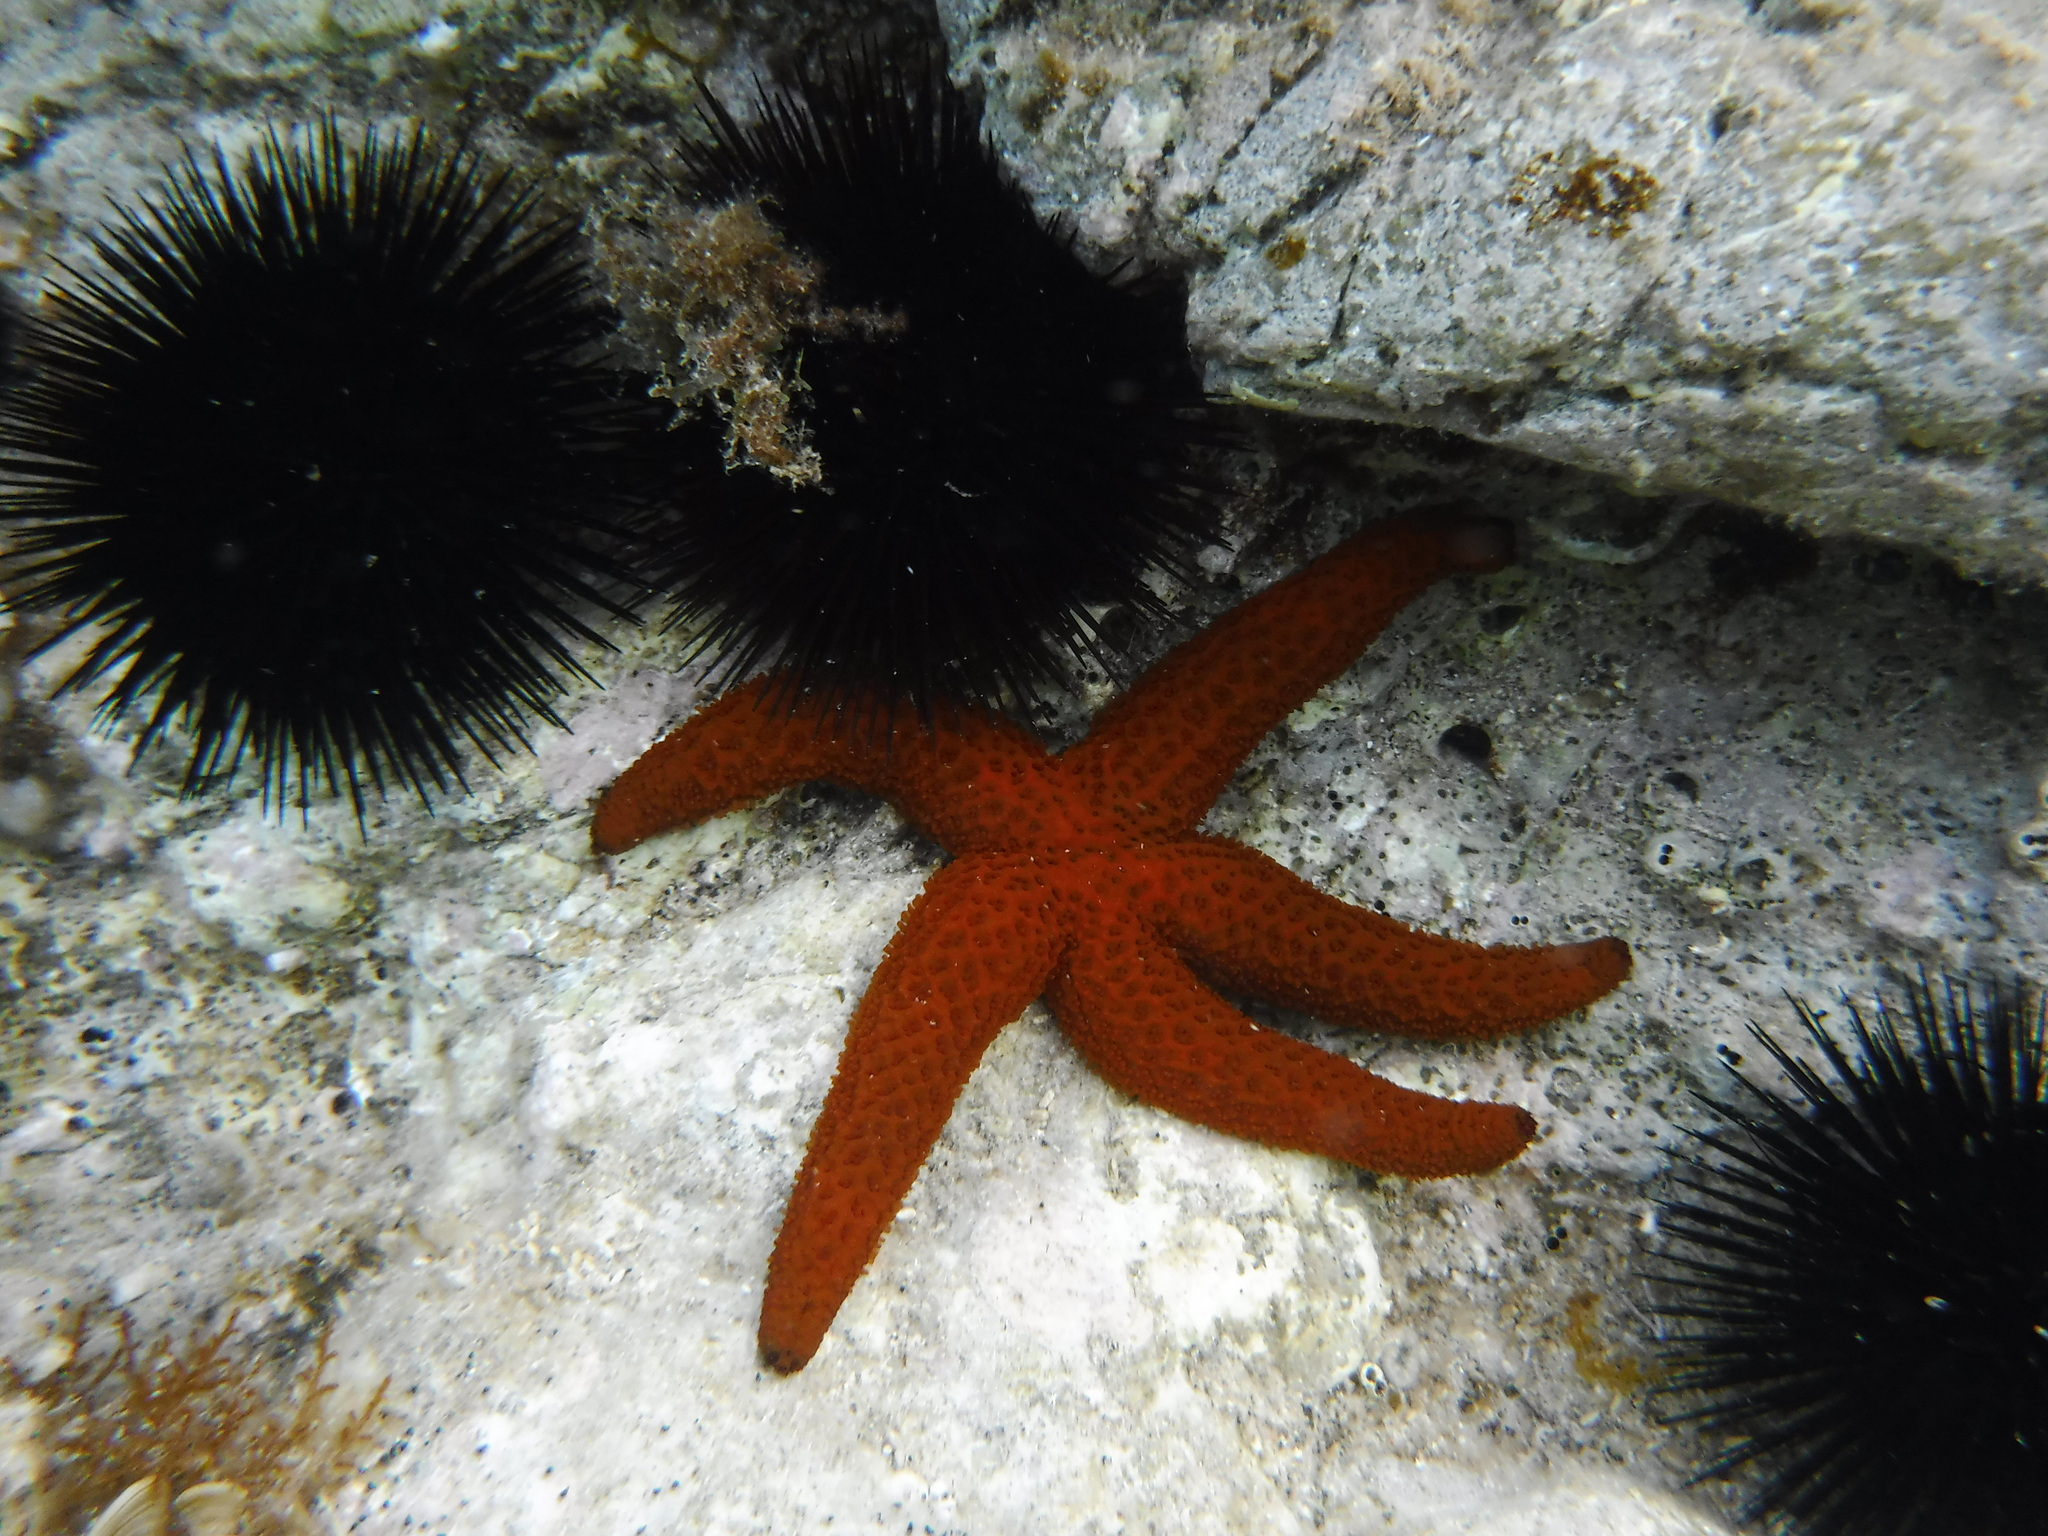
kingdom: Animalia
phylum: Echinodermata
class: Asteroidea
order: Spinulosida
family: Echinasteridae
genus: Echinaster
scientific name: Echinaster sepositus
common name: Red starfish
